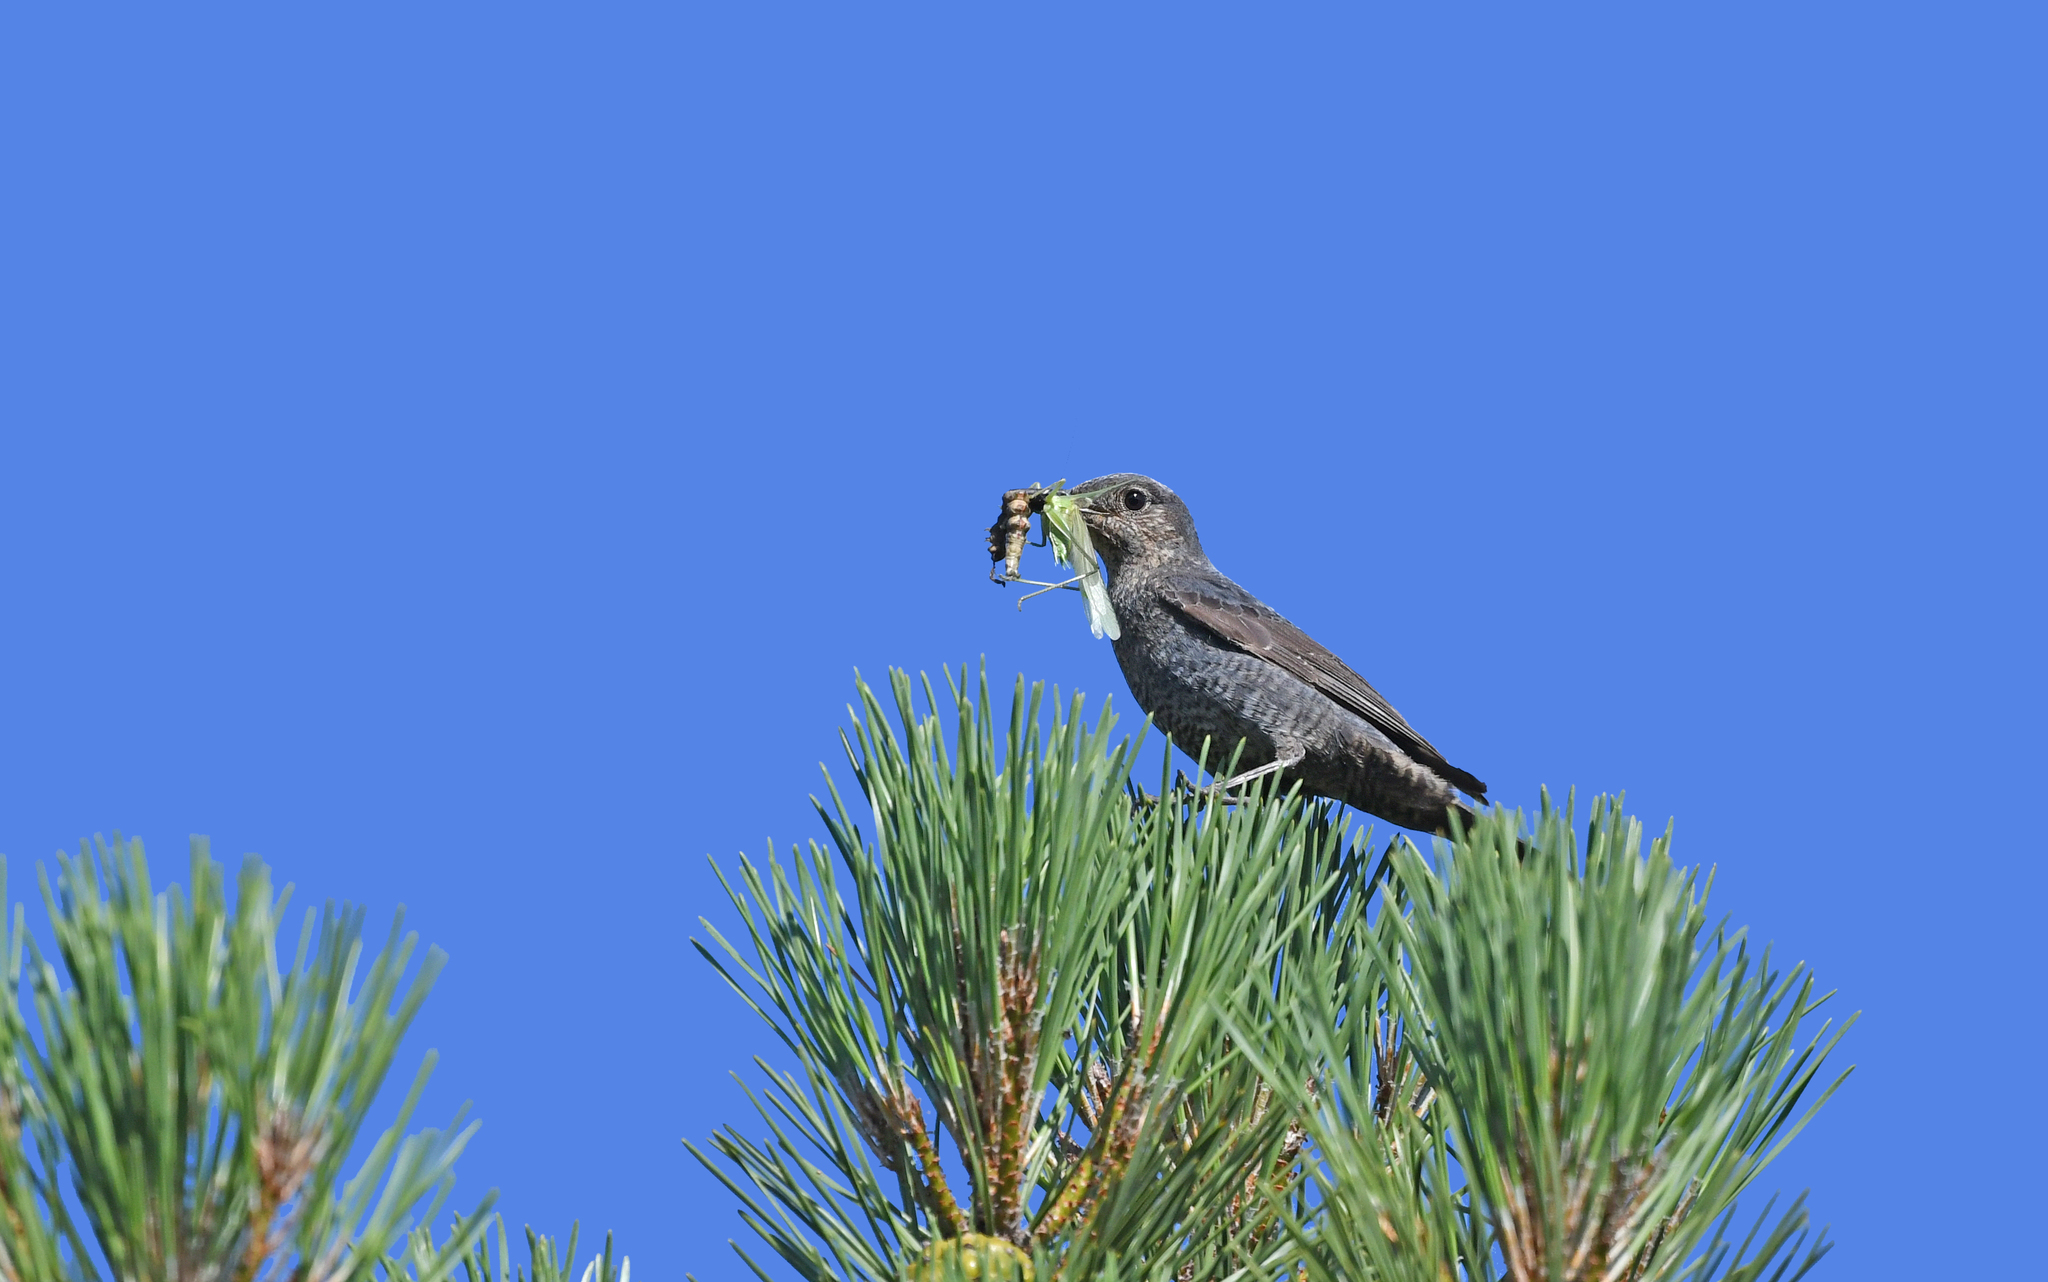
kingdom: Animalia
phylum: Chordata
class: Aves
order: Passeriformes
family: Muscicapidae
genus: Monticola
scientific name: Monticola solitarius
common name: Blue rock thrush
